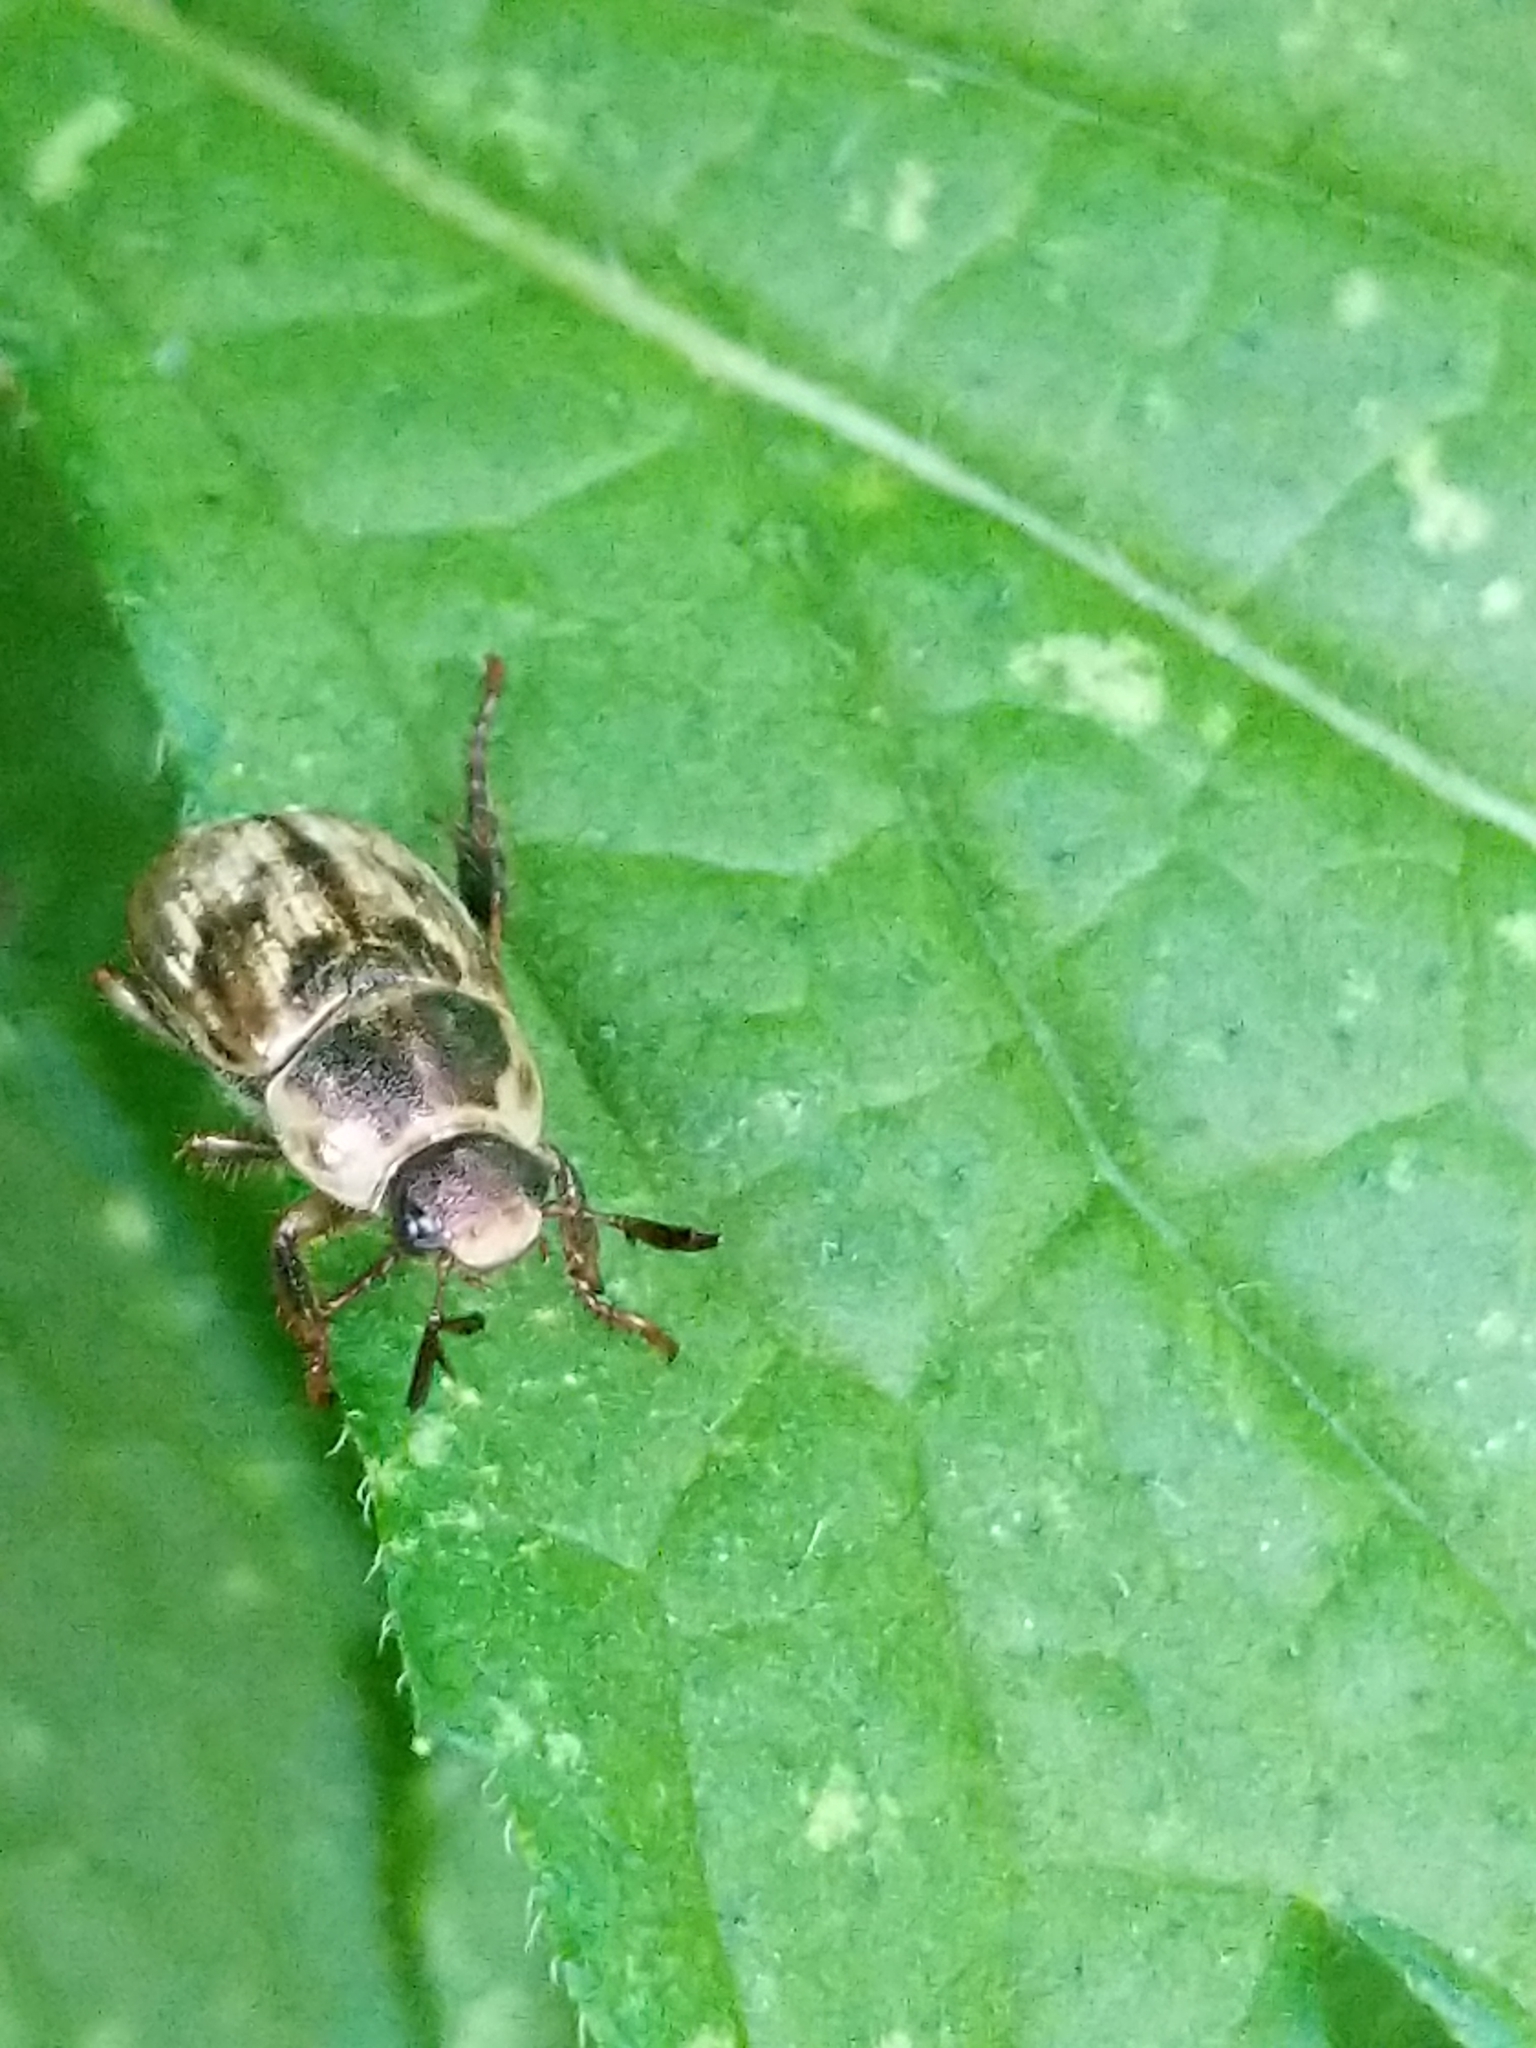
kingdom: Animalia
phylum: Arthropoda
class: Insecta
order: Coleoptera
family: Scarabaeidae
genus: Exomala
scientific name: Exomala orientalis
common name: Oriental beetle
